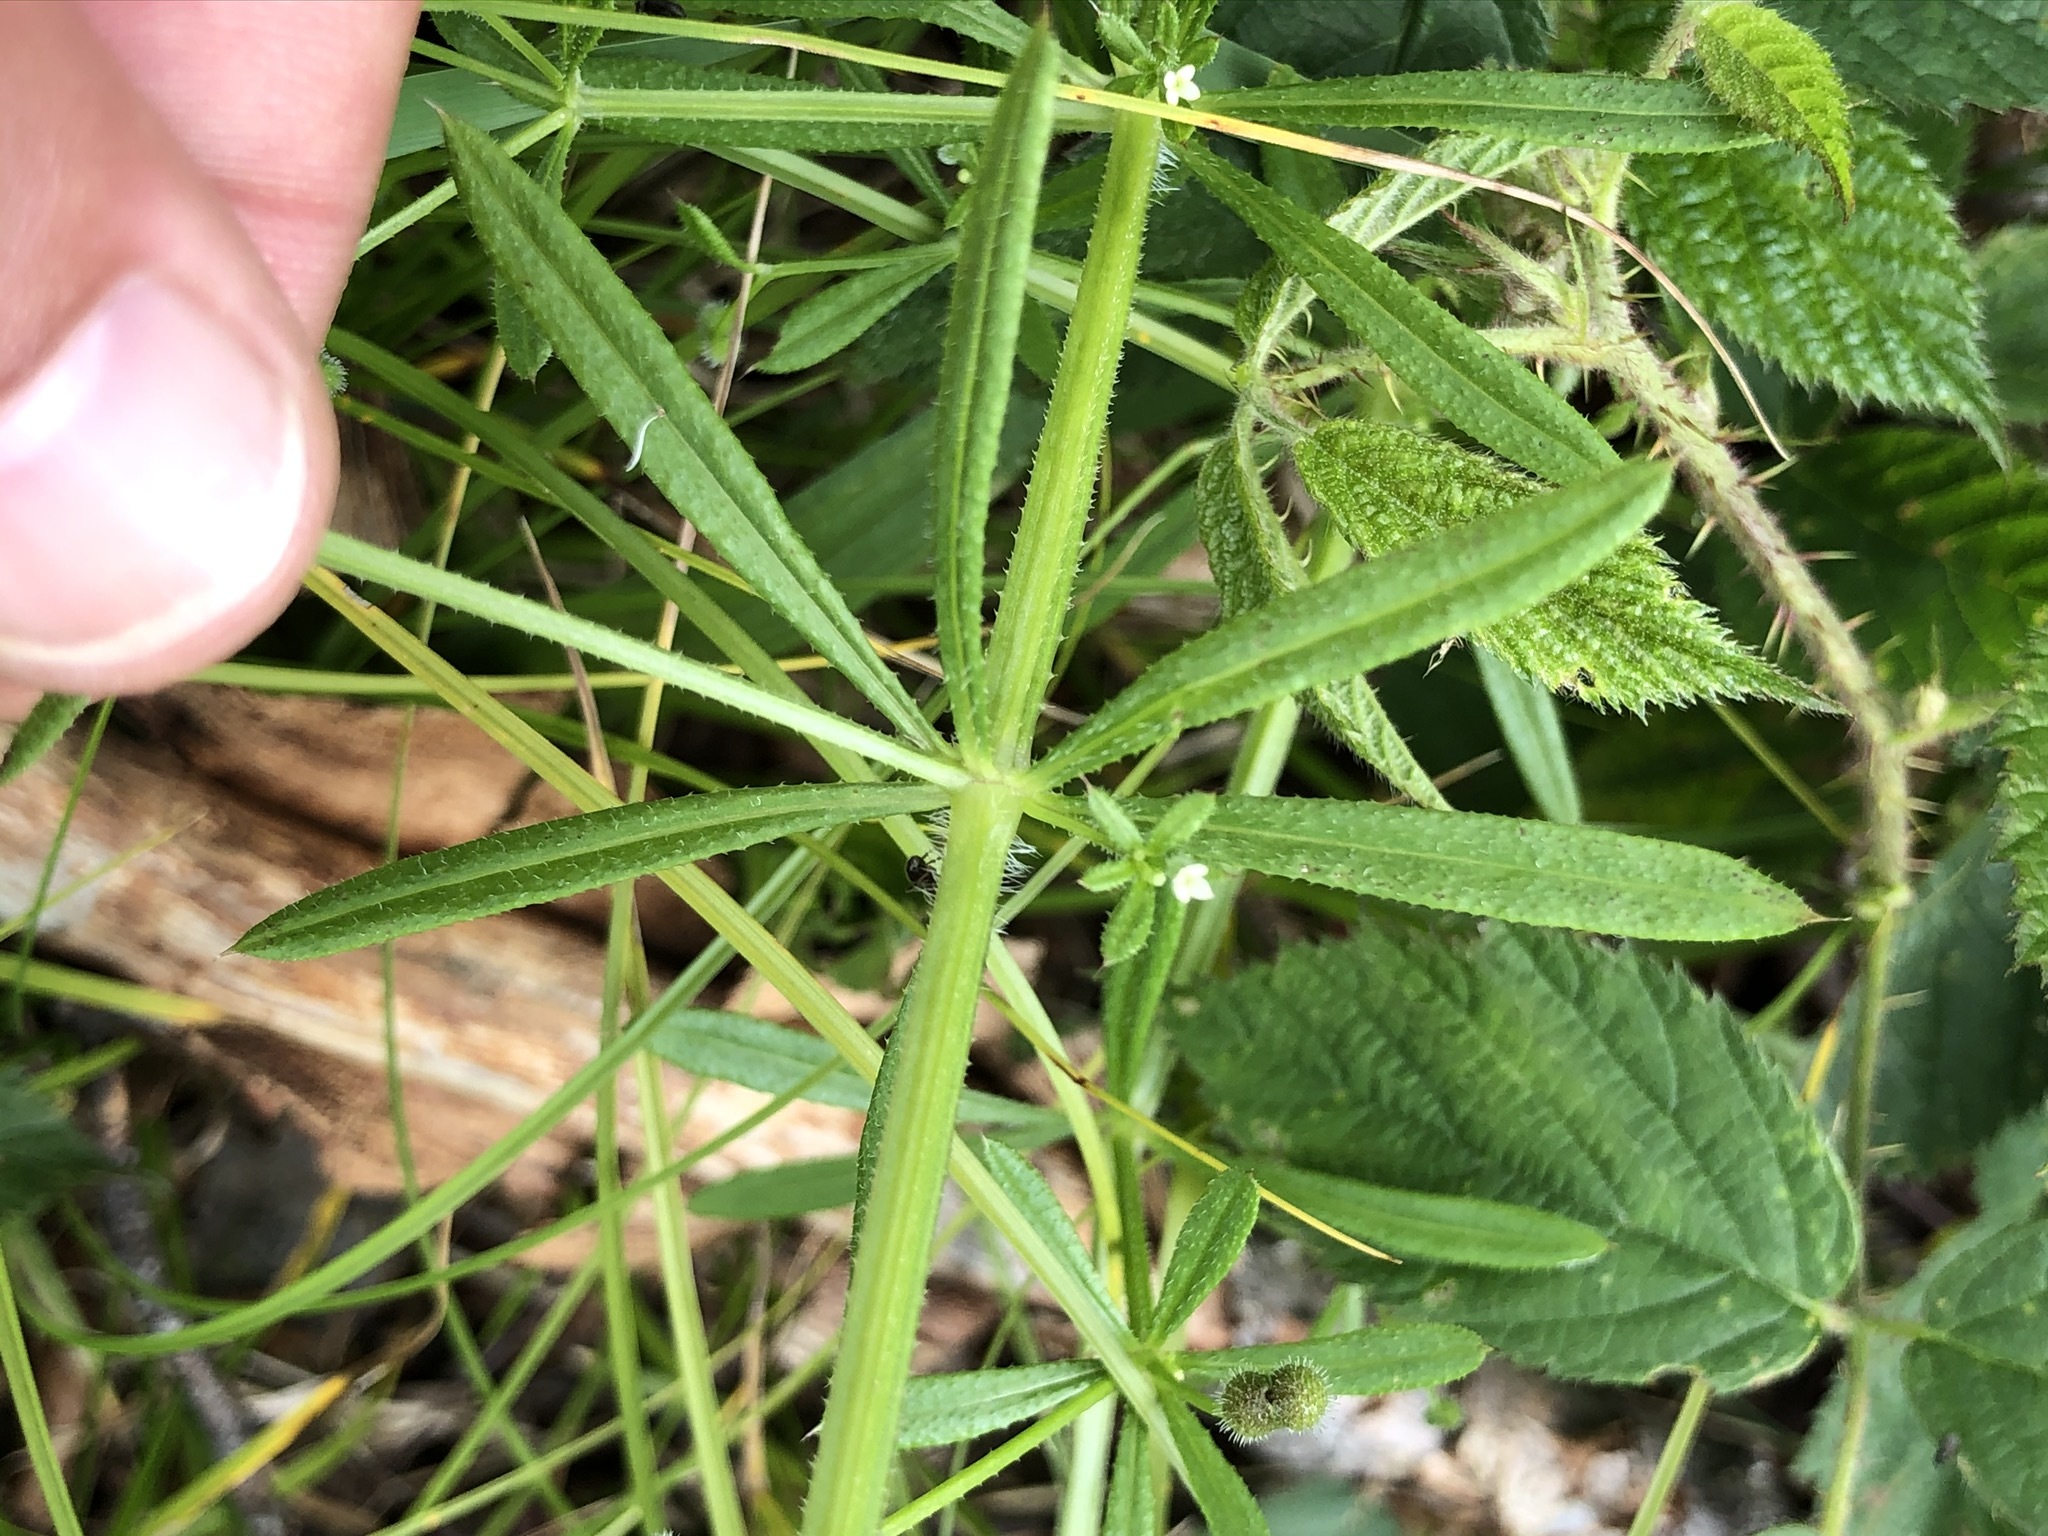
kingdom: Plantae
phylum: Tracheophyta
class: Magnoliopsida
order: Gentianales
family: Rubiaceae
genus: Galium
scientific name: Galium aparine
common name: Cleavers
